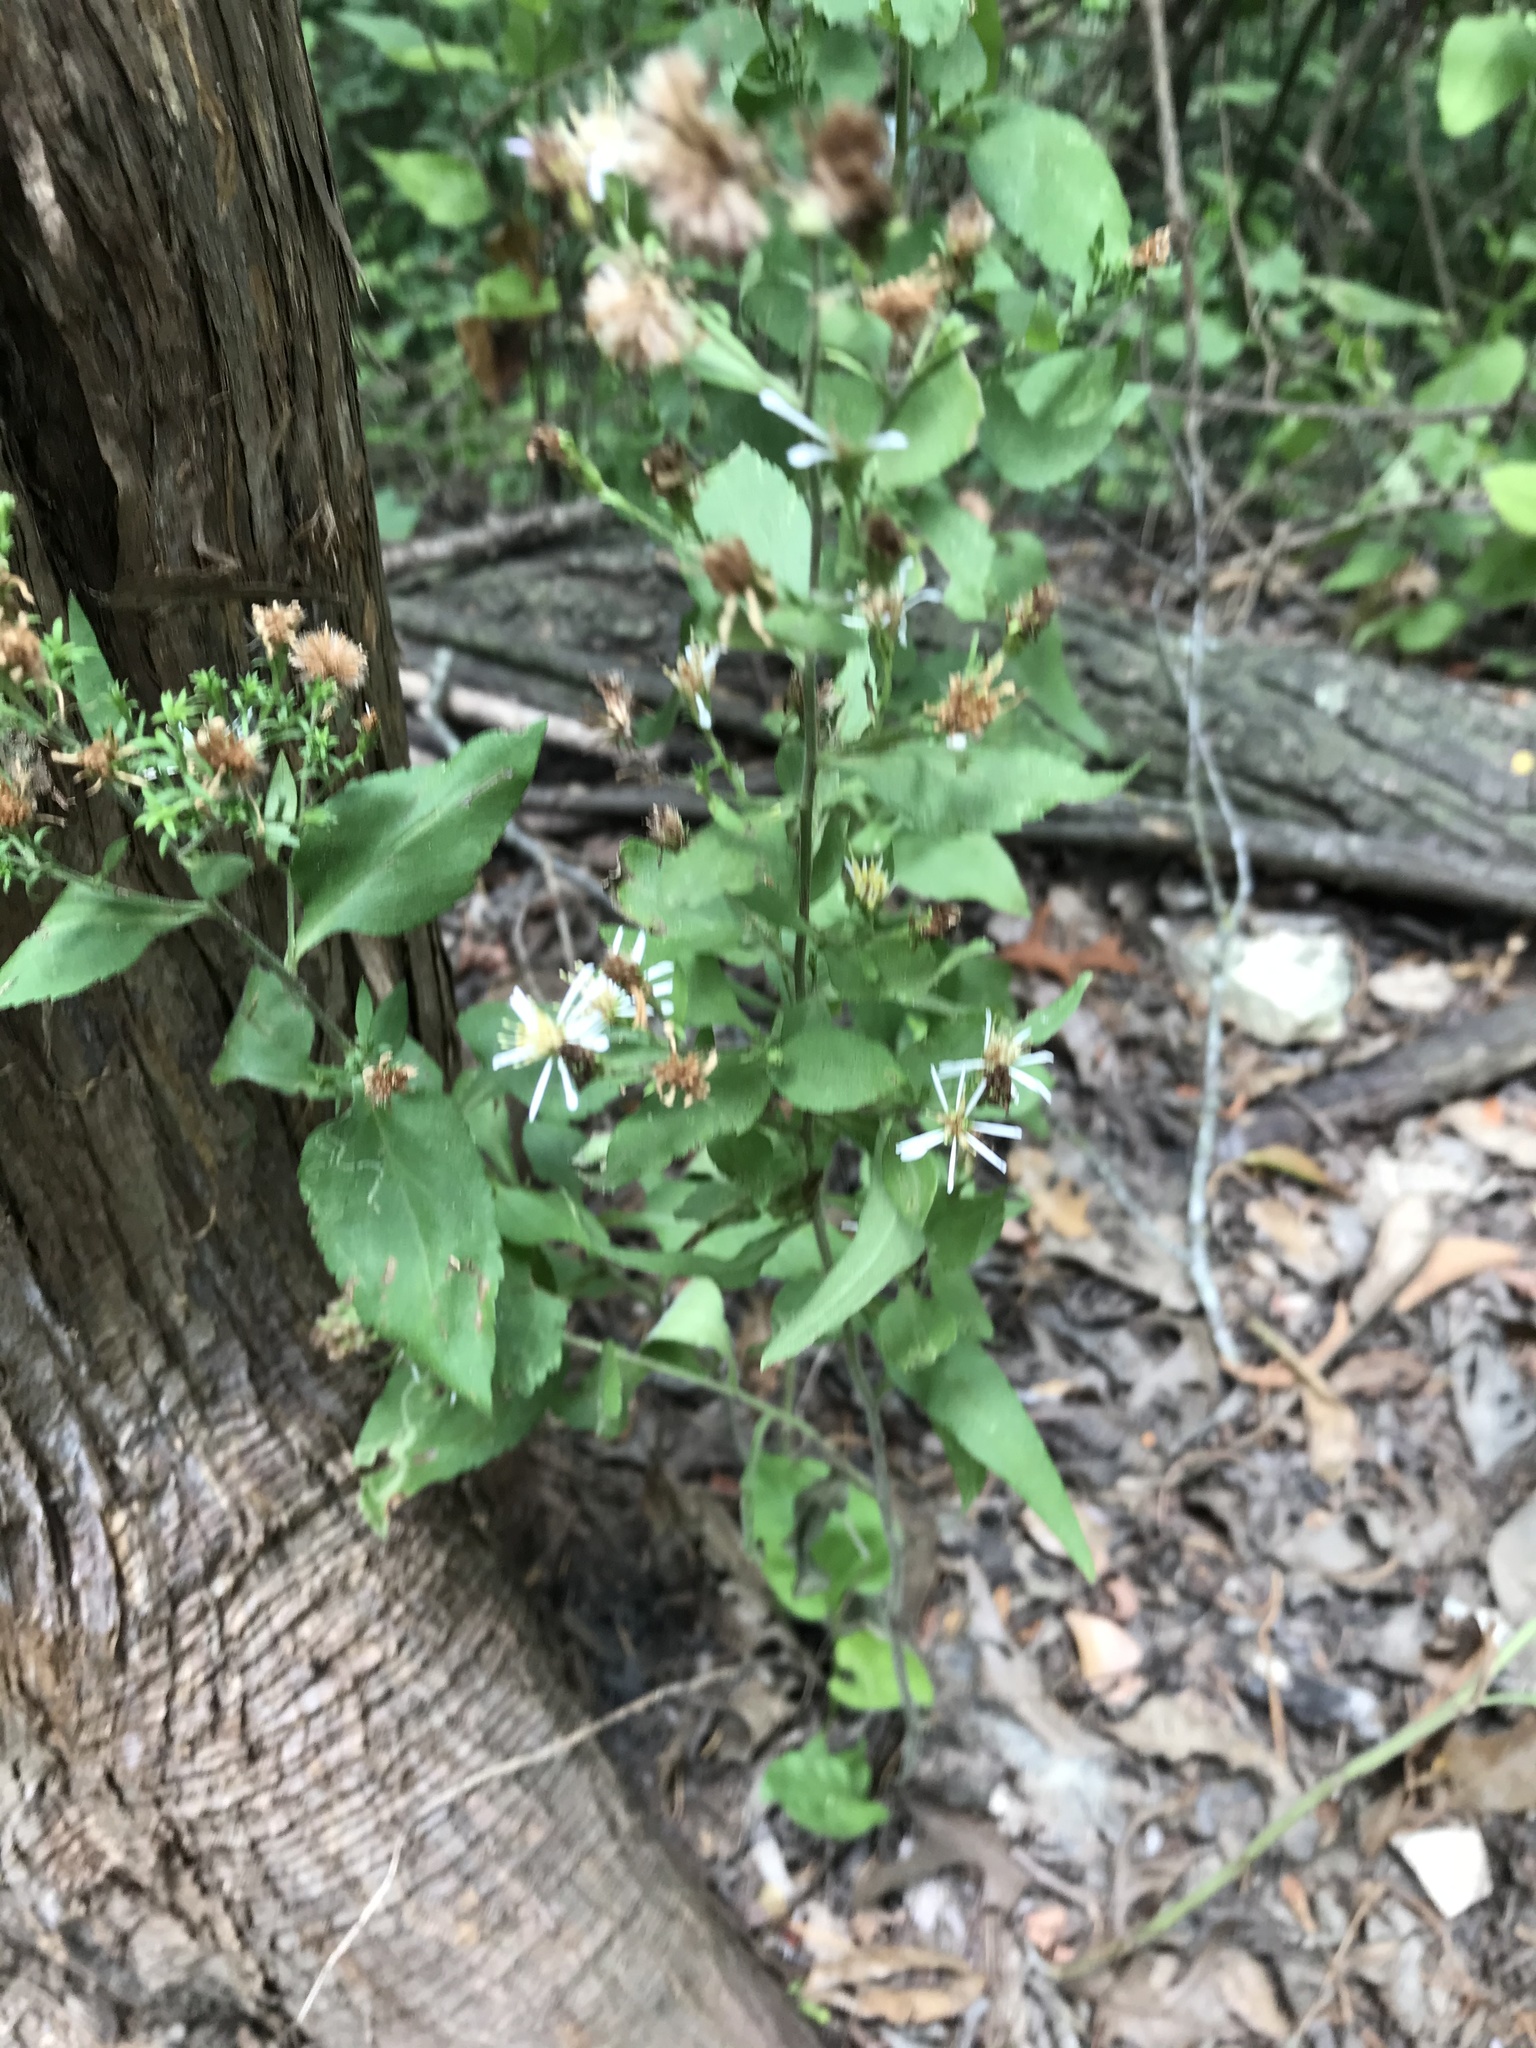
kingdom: Plantae
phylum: Tracheophyta
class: Magnoliopsida
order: Asterales
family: Asteraceae
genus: Symphyotrichum
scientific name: Symphyotrichum drummondii
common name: Drummond's aster
